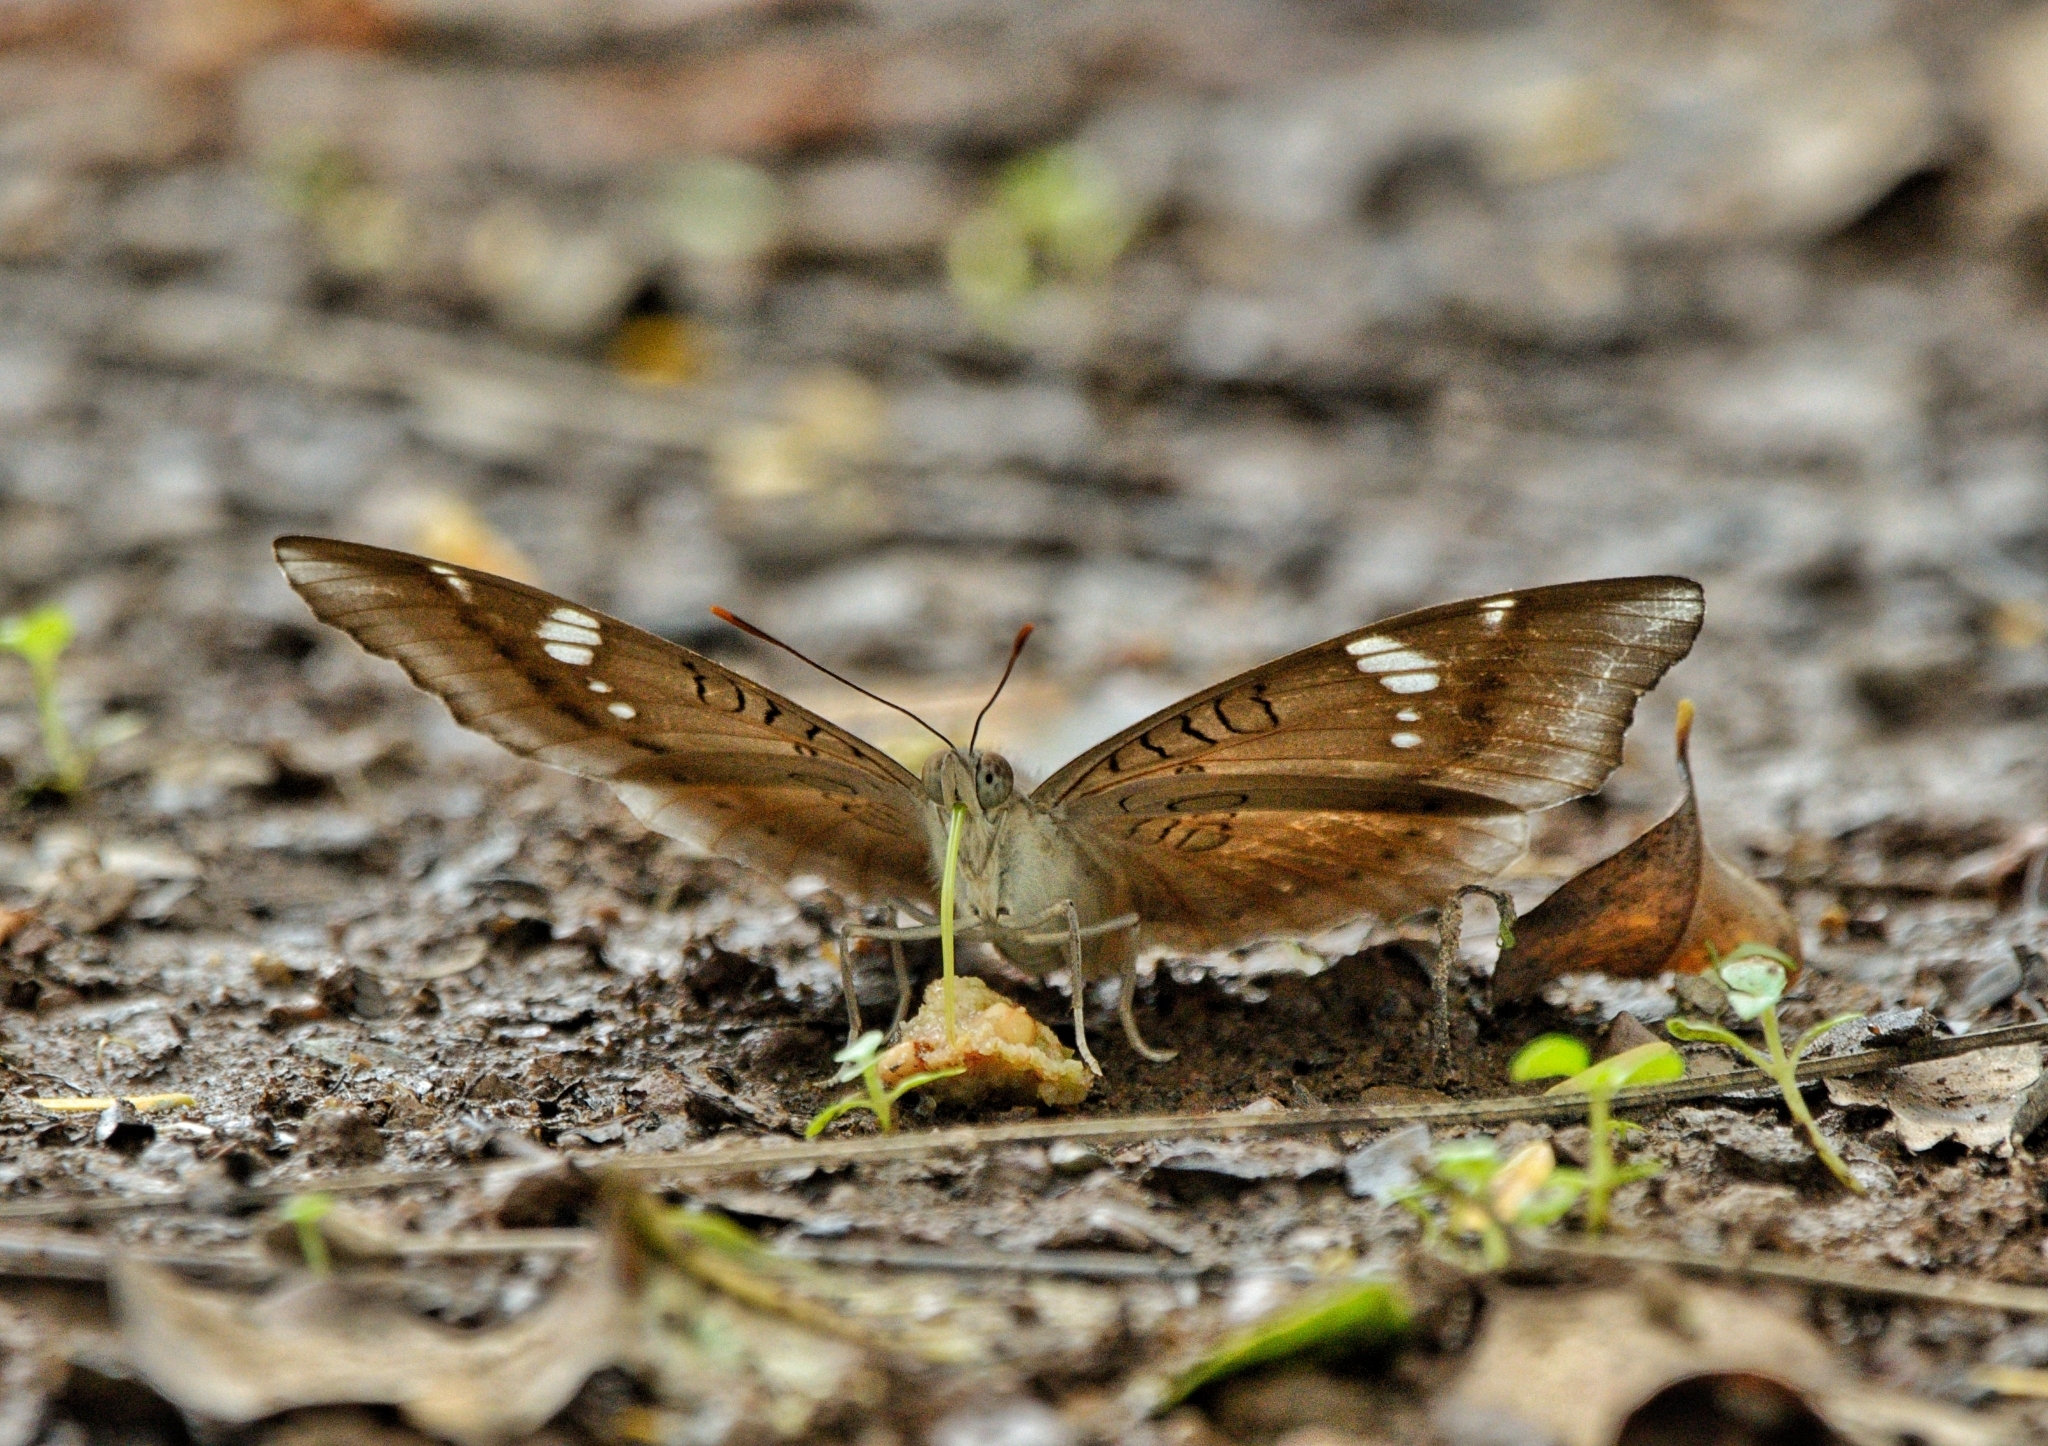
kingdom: Animalia
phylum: Arthropoda
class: Insecta
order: Lepidoptera
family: Nymphalidae
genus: Euthalia
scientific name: Euthalia aconthea
